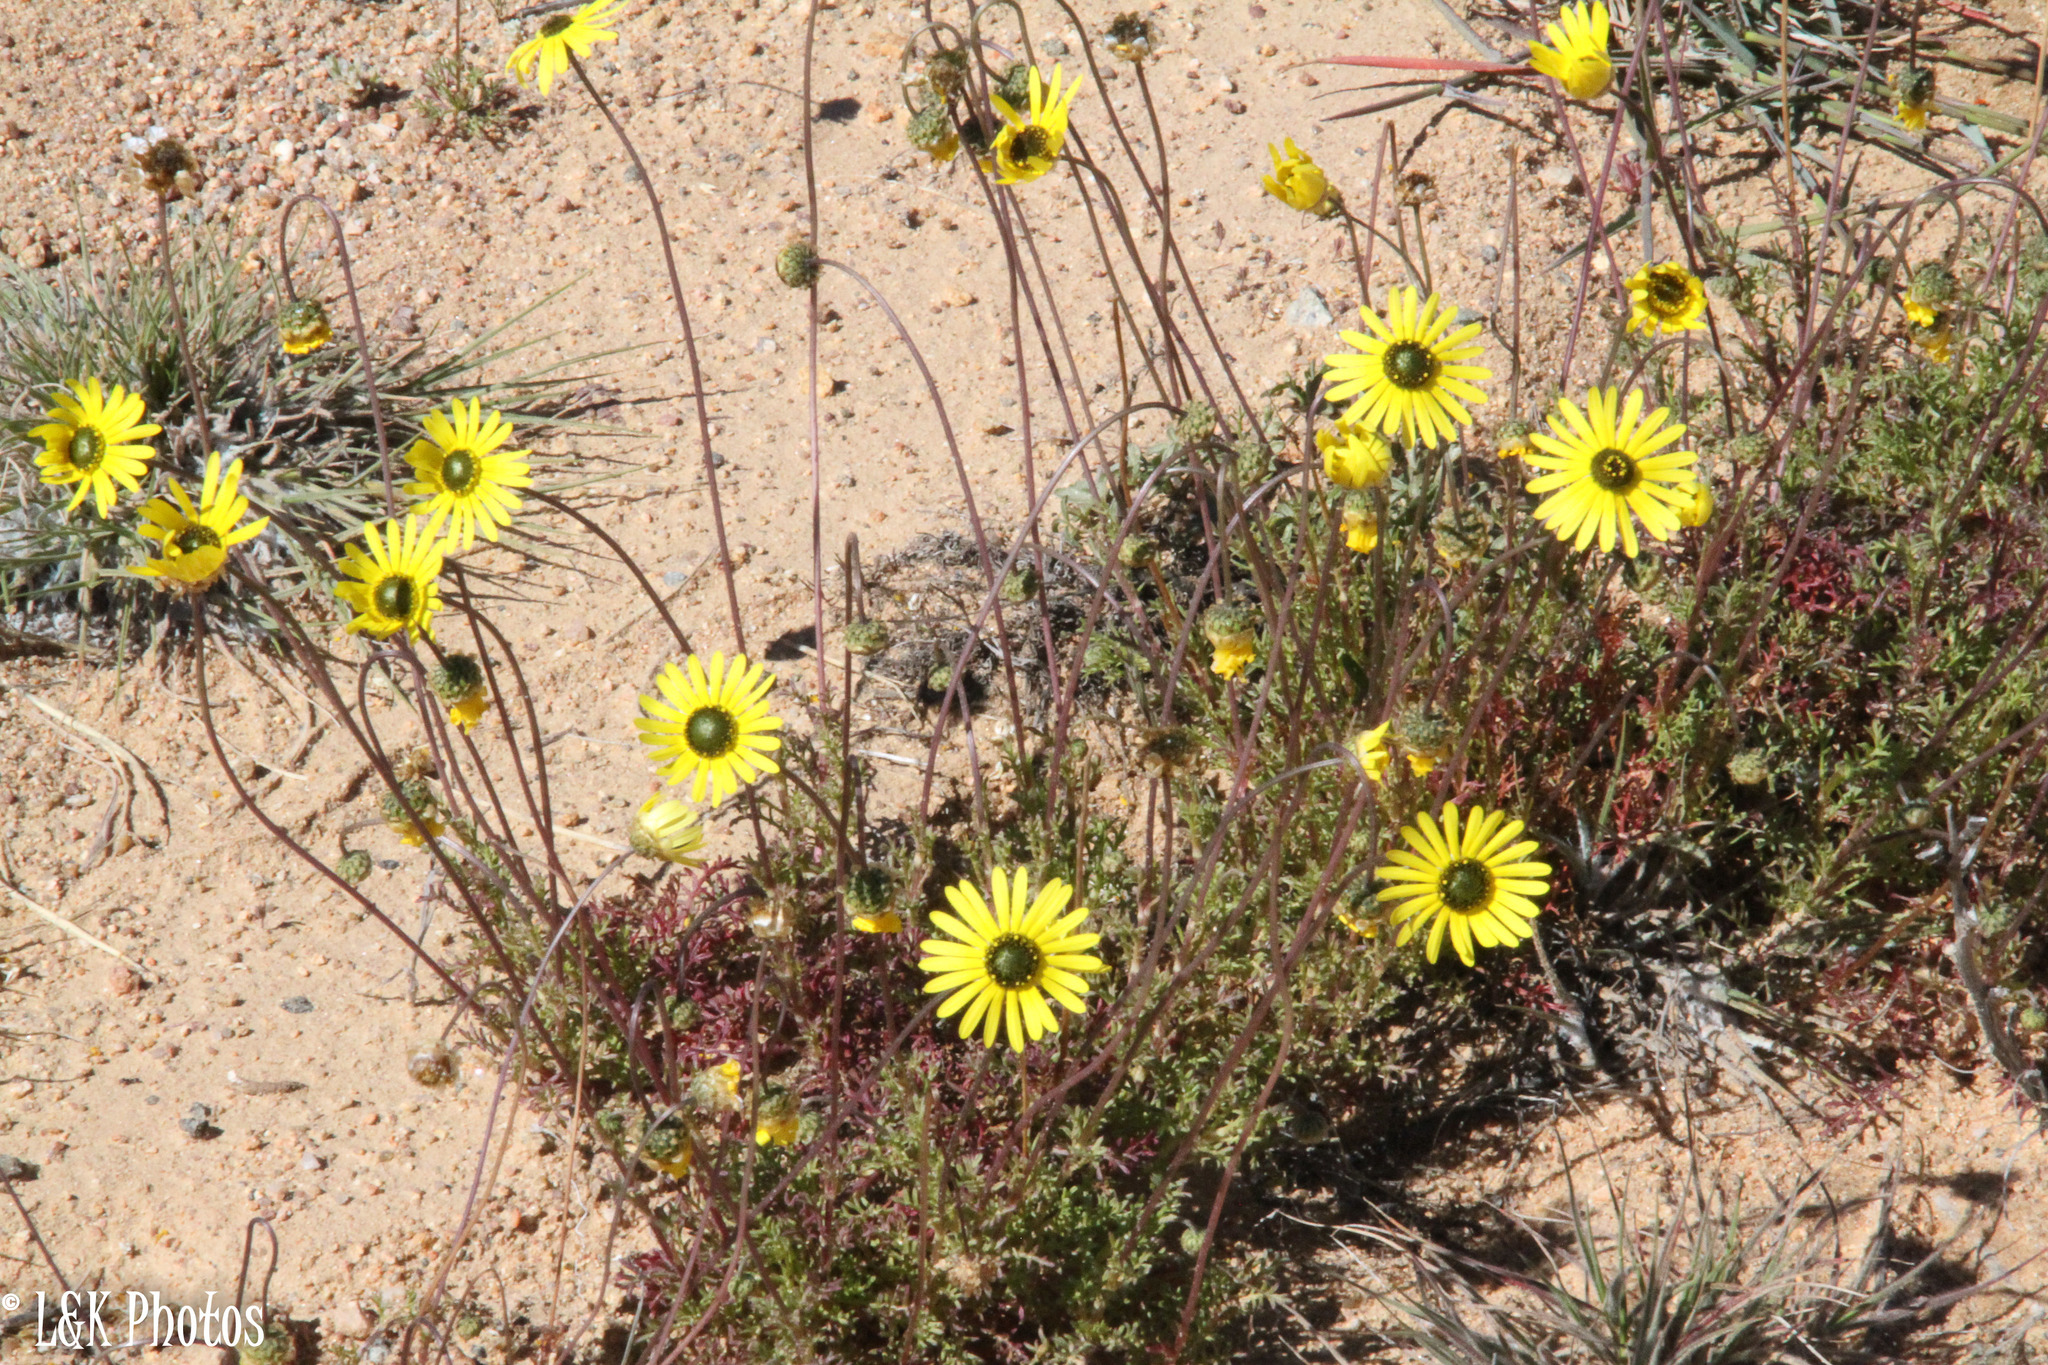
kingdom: Plantae
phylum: Tracheophyta
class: Magnoliopsida
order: Asterales
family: Asteraceae
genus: Ursinia
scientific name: Ursinia kamiesbergensis
